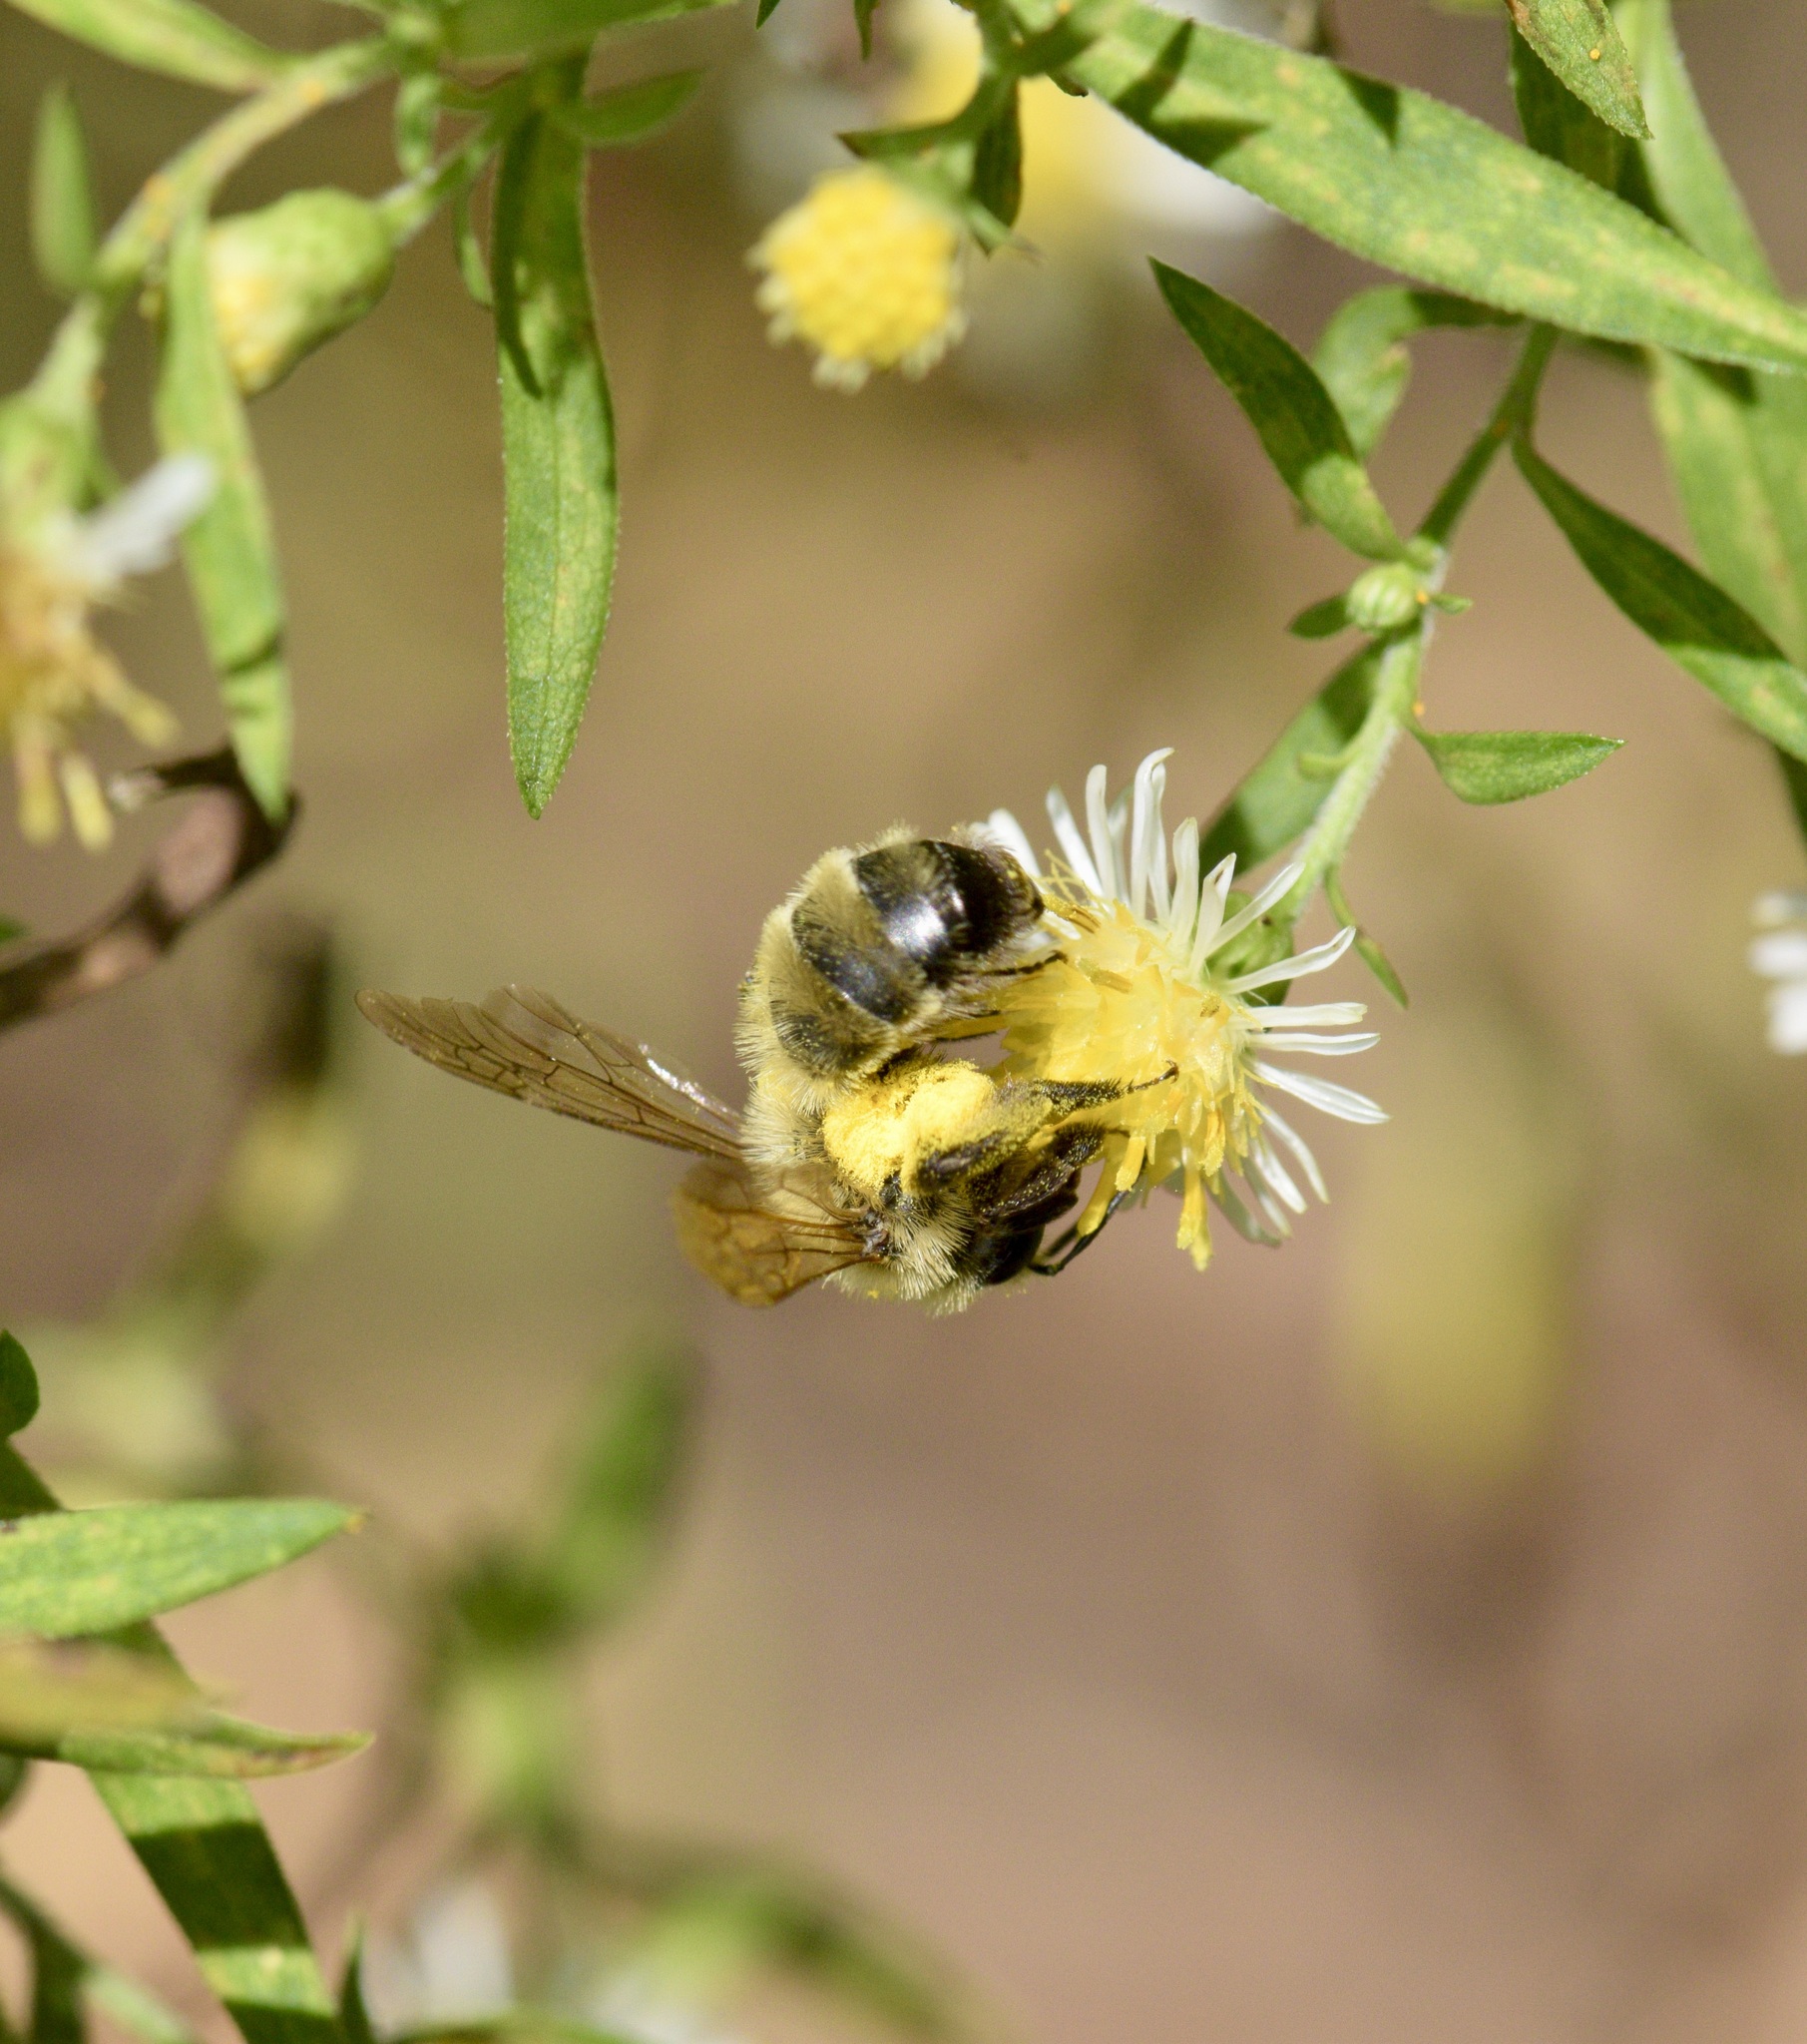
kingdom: Animalia
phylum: Arthropoda
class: Insecta
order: Hymenoptera
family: Andrenidae
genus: Andrena
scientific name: Andrena hirticincta
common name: Hairy-banded mining bee
